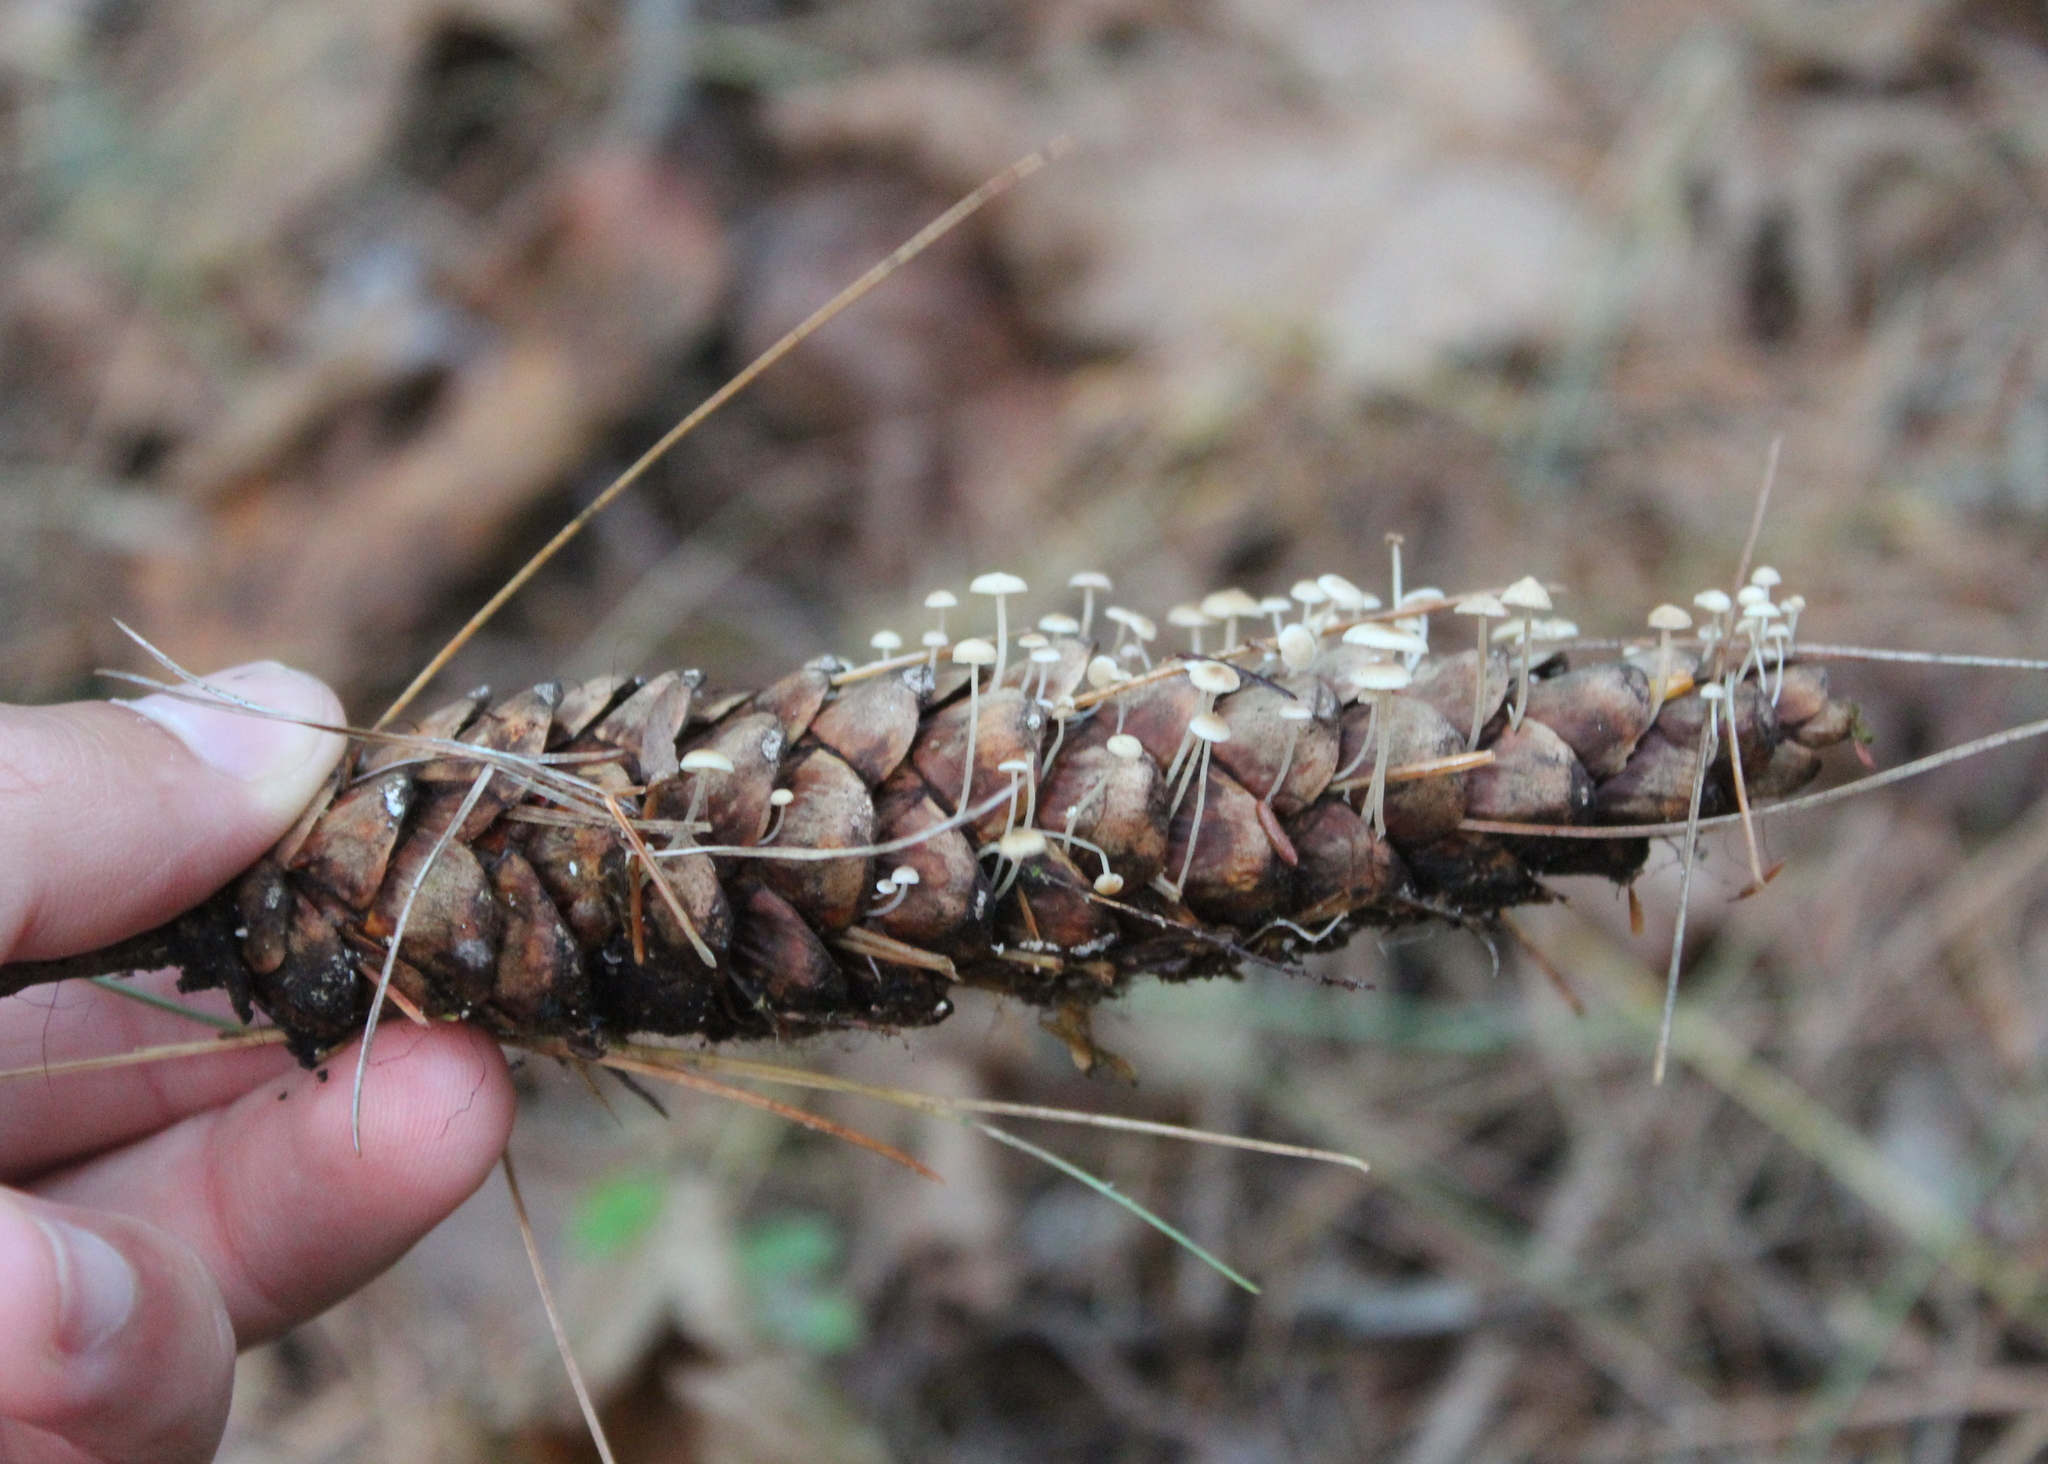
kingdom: Fungi
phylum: Basidiomycota
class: Agaricomycetes
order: Agaricales
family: Marasmiaceae
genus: Baeospora
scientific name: Baeospora myosura
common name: Conifercone cap
